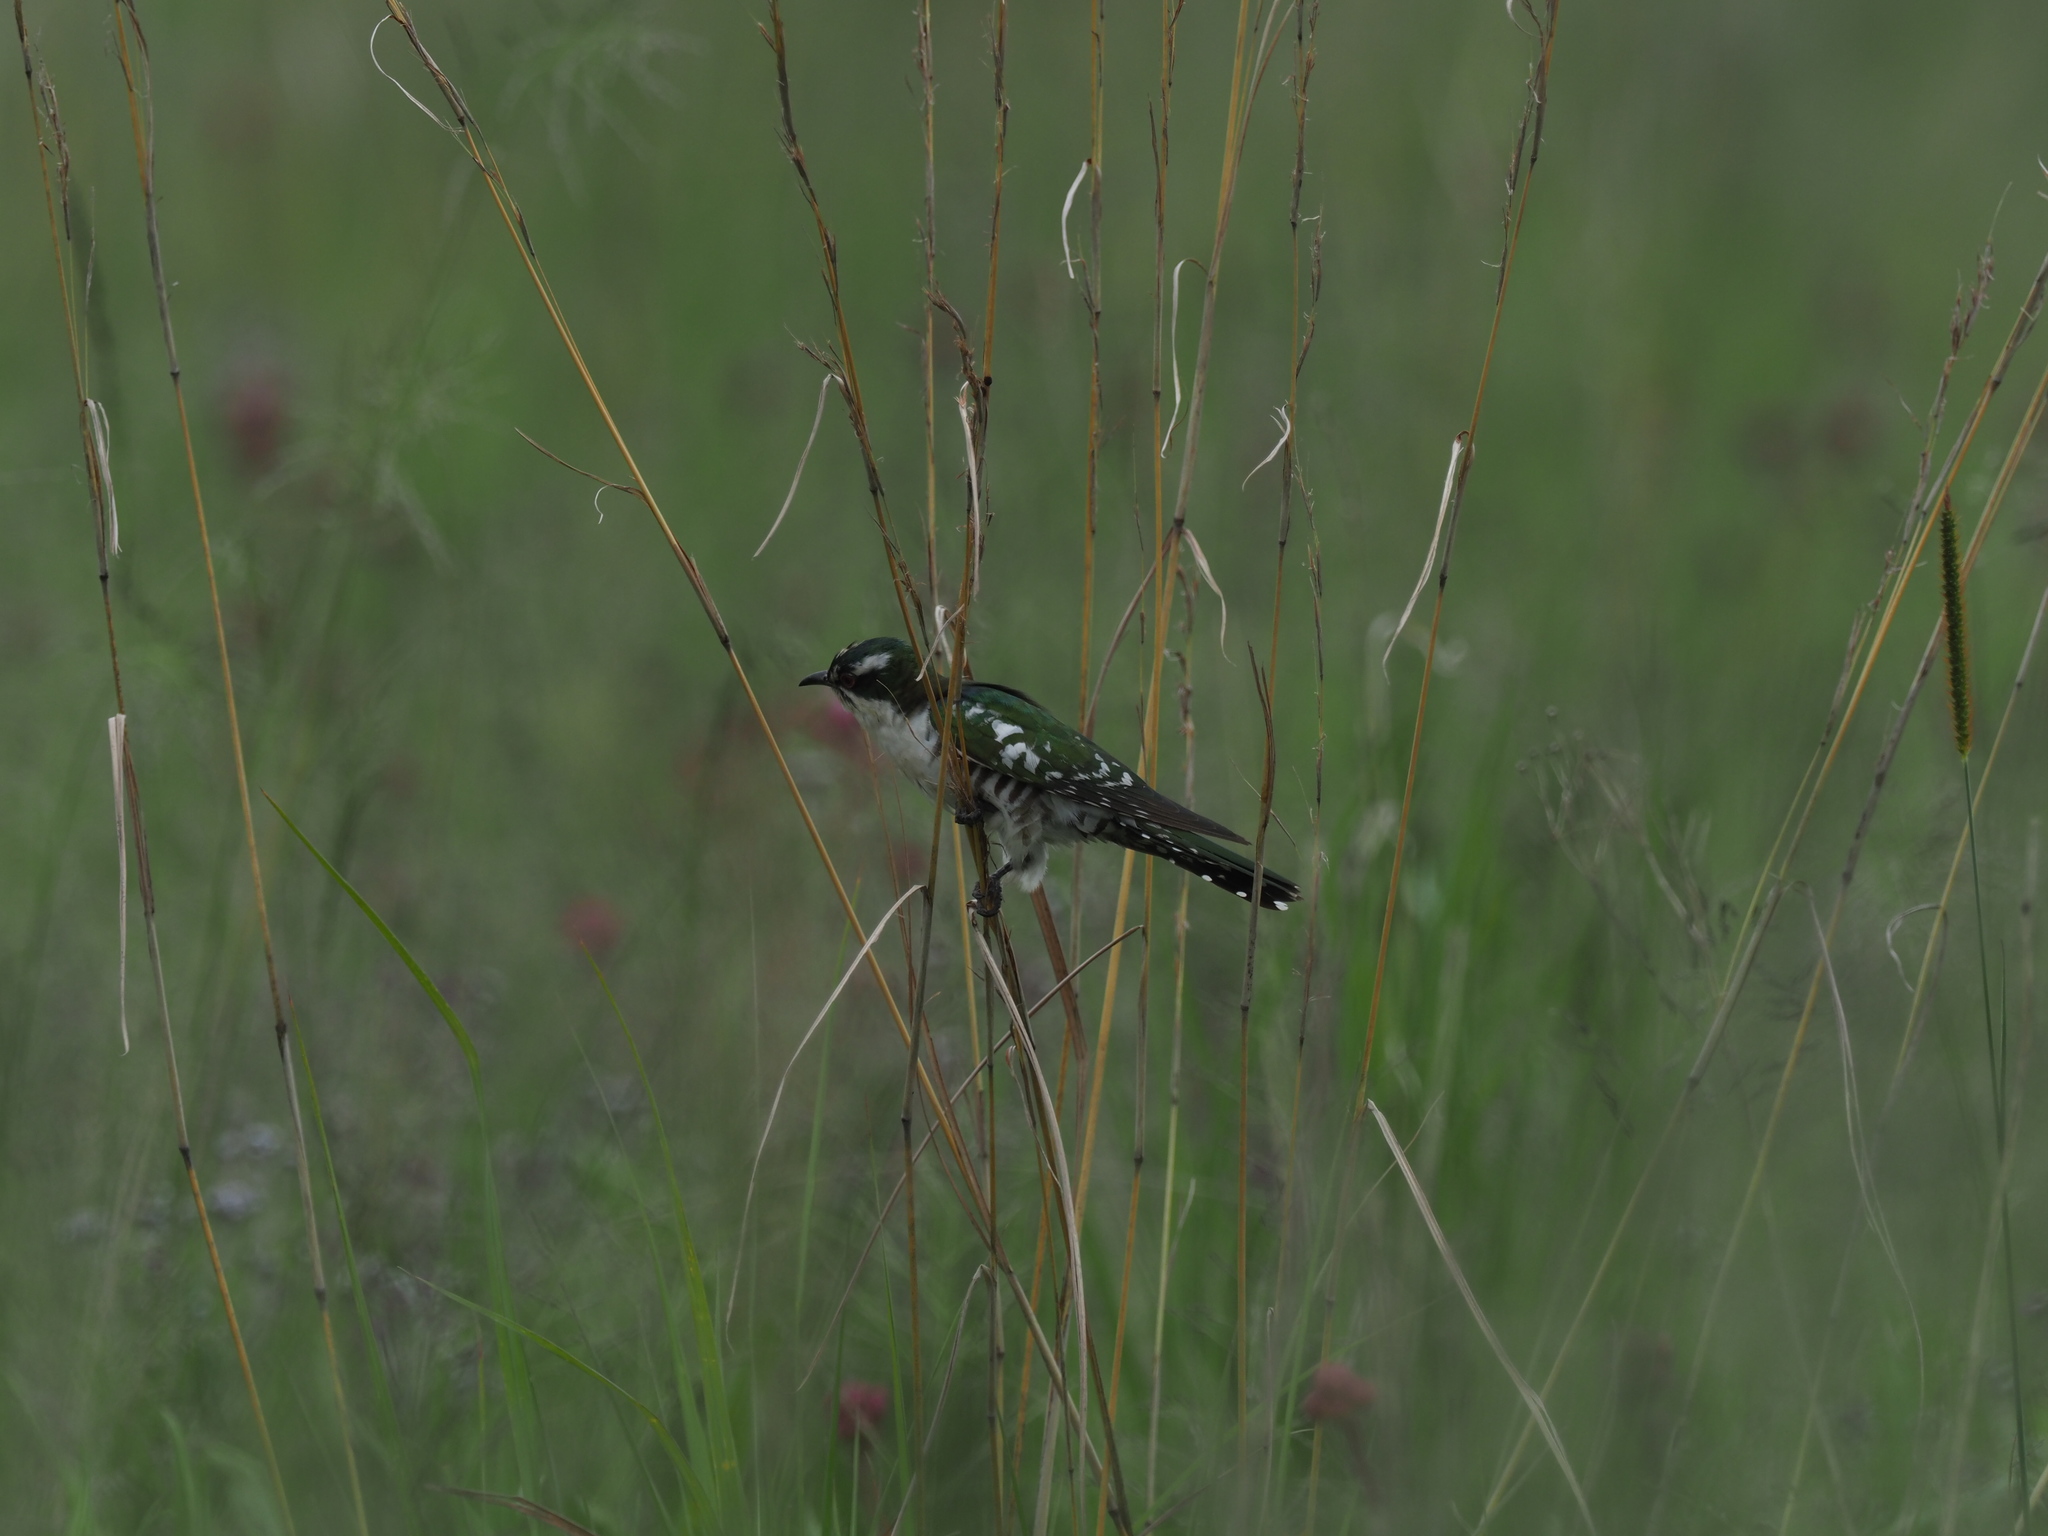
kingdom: Animalia
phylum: Chordata
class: Aves
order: Cuculiformes
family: Cuculidae
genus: Chrysococcyx
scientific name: Chrysococcyx caprius
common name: Diederik cuckoo
